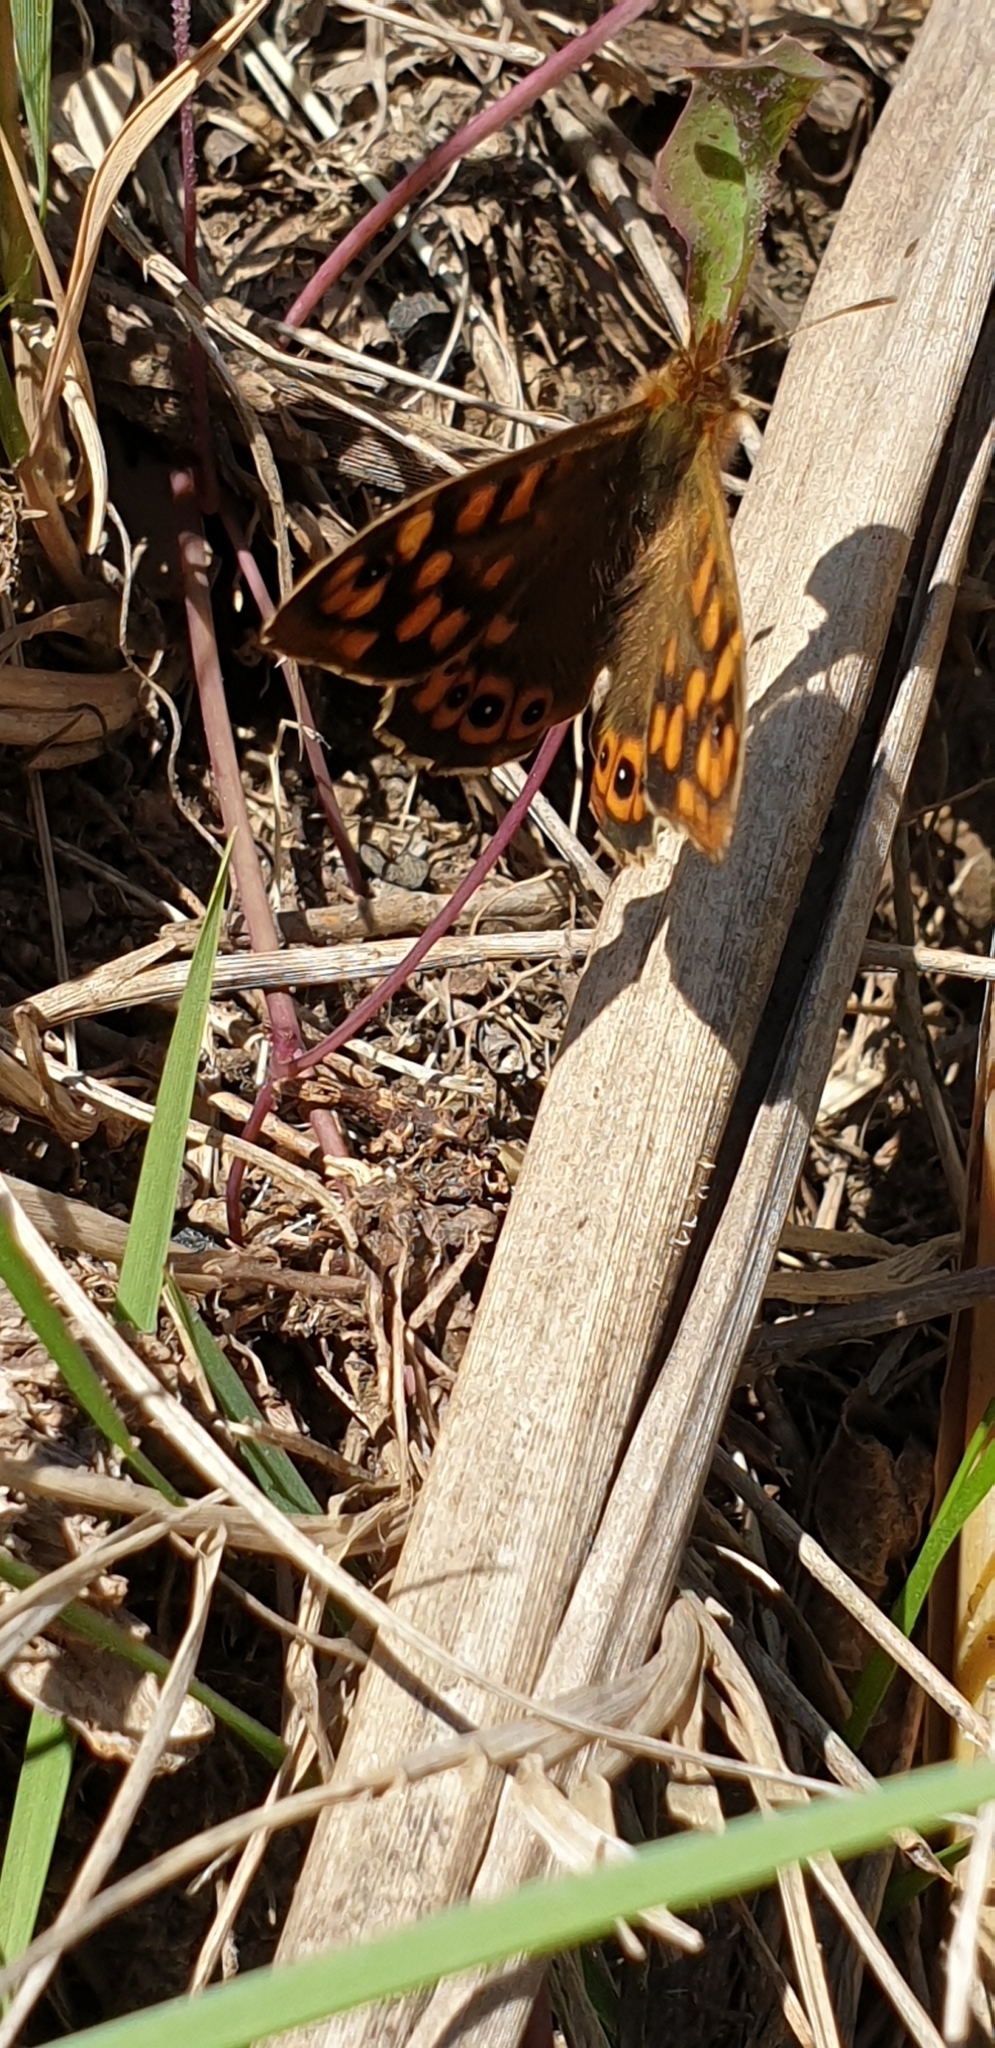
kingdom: Animalia
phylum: Arthropoda
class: Insecta
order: Lepidoptera
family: Nymphalidae
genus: Pararge
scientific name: Pararge aegeria
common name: Speckled wood
